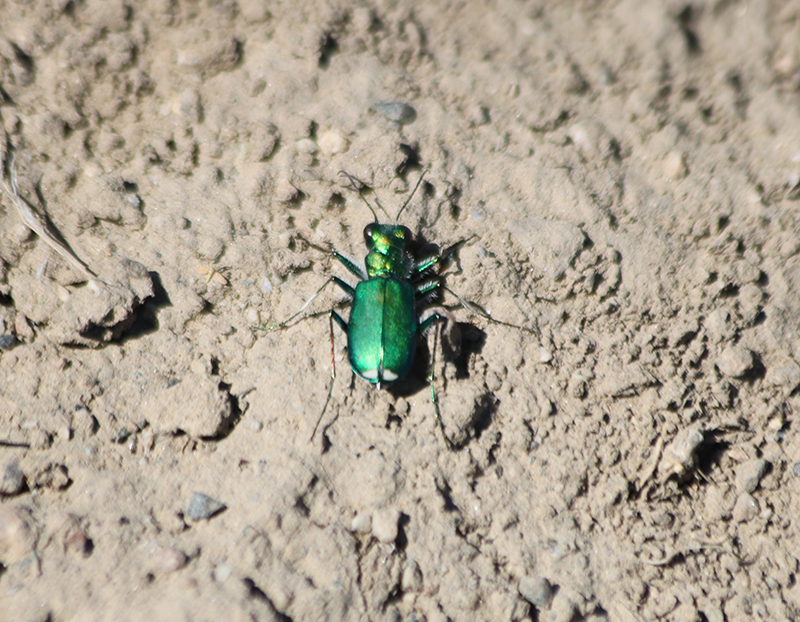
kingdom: Animalia
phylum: Arthropoda
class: Insecta
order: Coleoptera
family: Carabidae
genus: Cicindela
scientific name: Cicindela decemnotata
